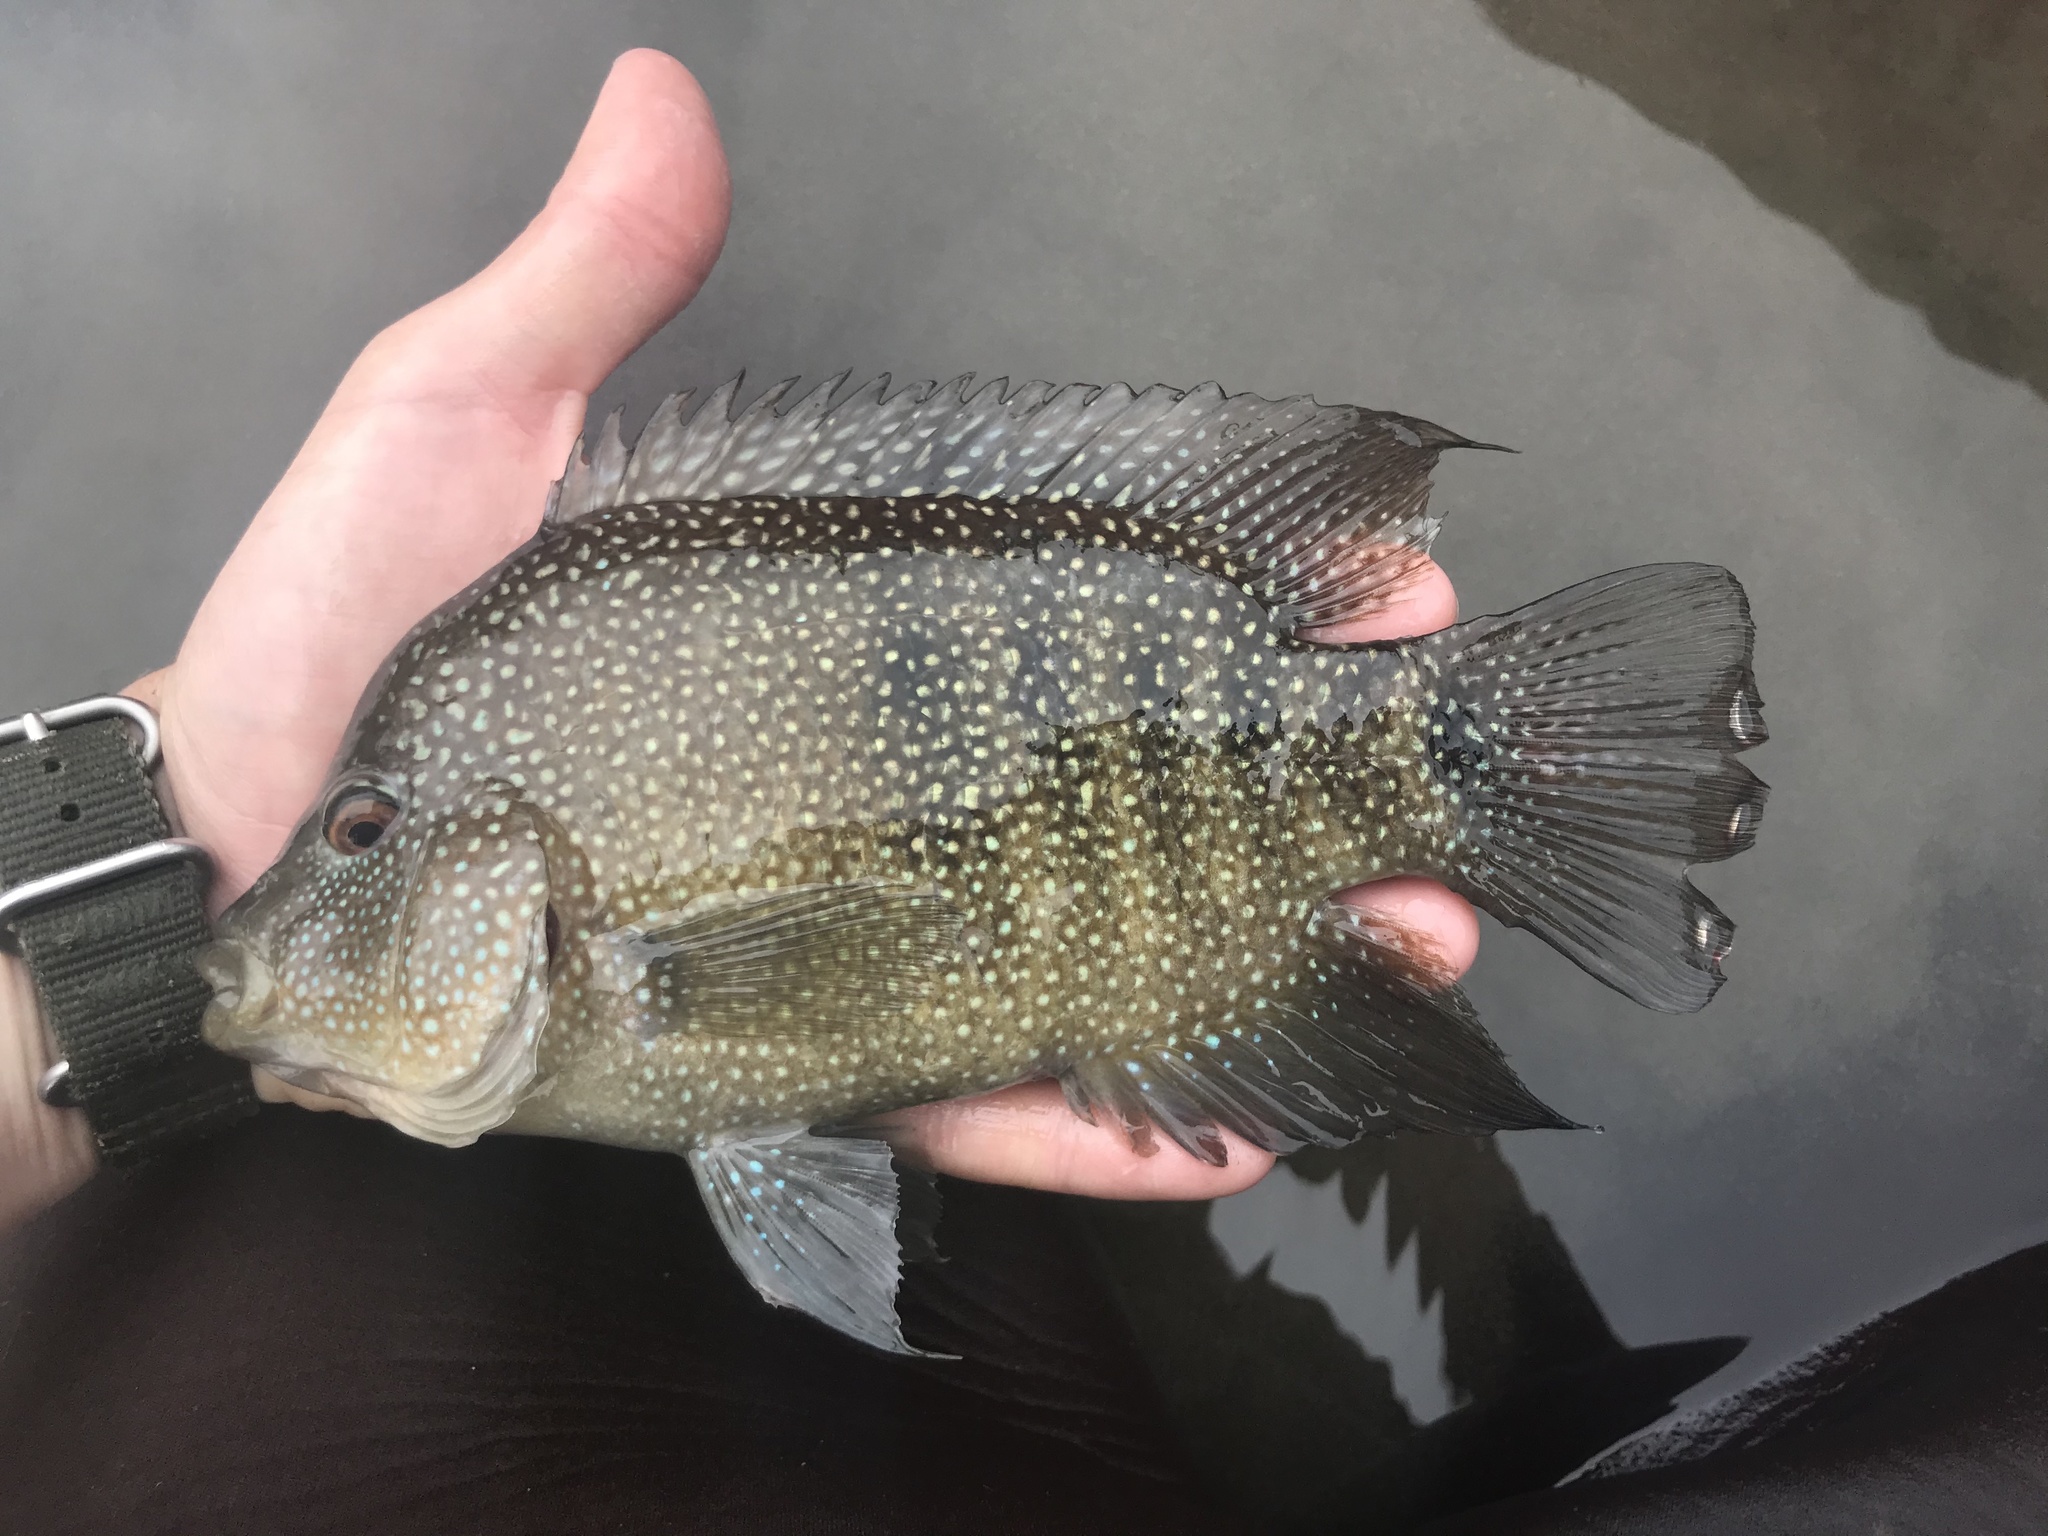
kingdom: Animalia
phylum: Chordata
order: Perciformes
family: Cichlidae
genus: Herichthys
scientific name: Herichthys cyanoguttatus
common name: Rio grande cichlid
